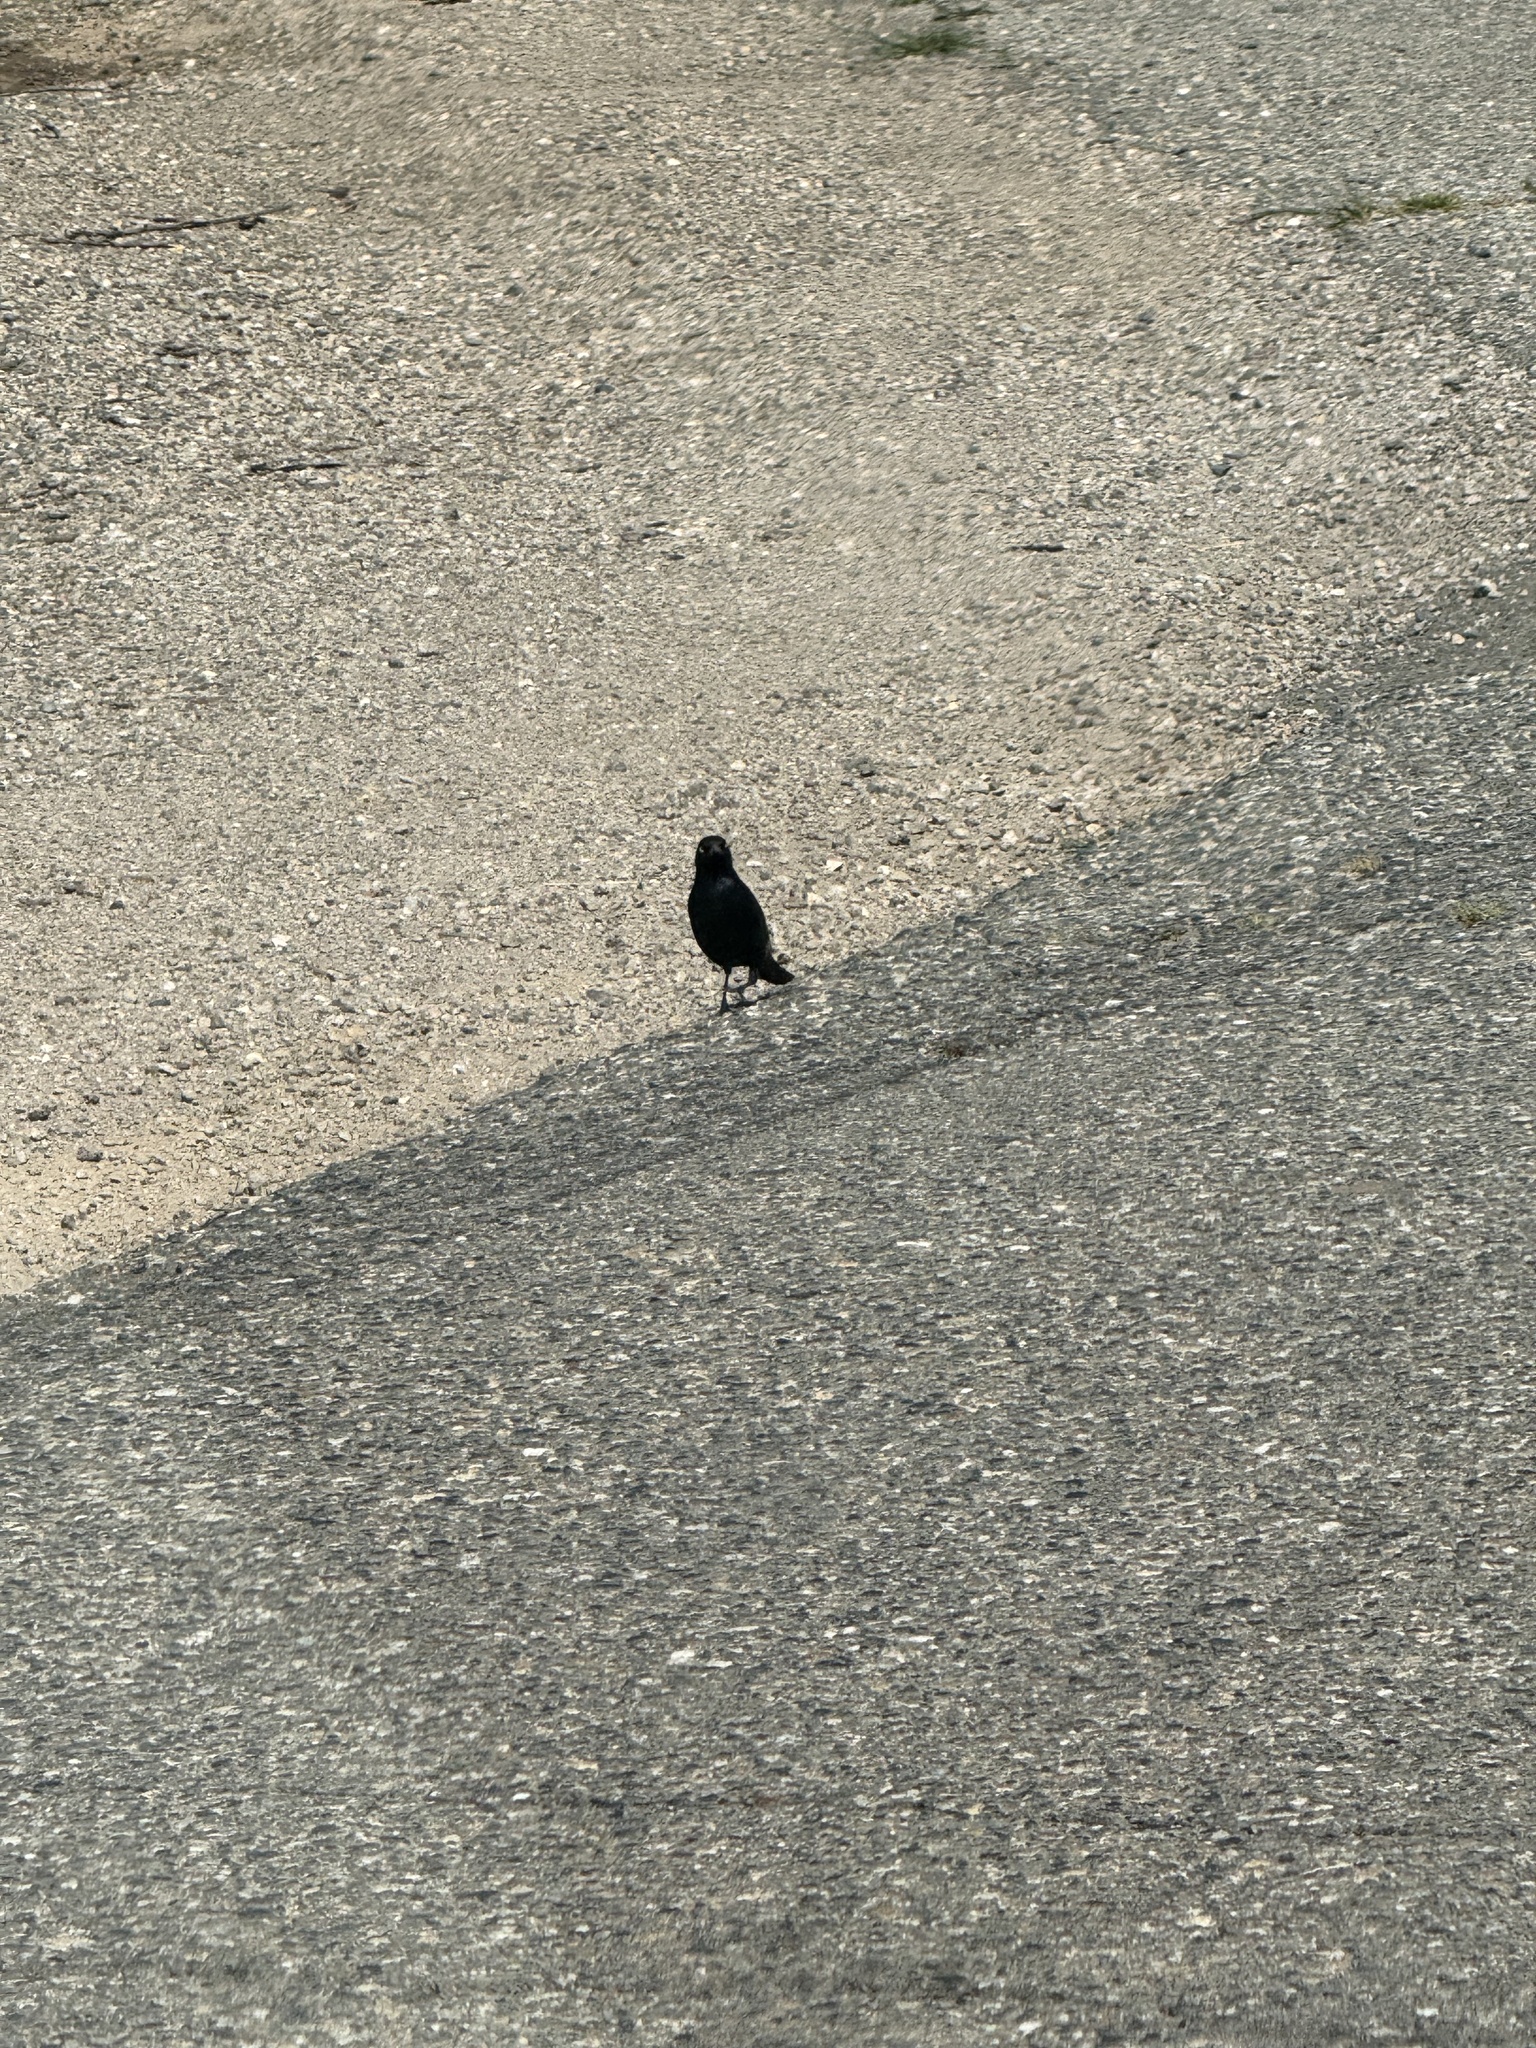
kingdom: Animalia
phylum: Chordata
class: Aves
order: Passeriformes
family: Icteridae
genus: Euphagus
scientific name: Euphagus cyanocephalus
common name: Brewer's blackbird
